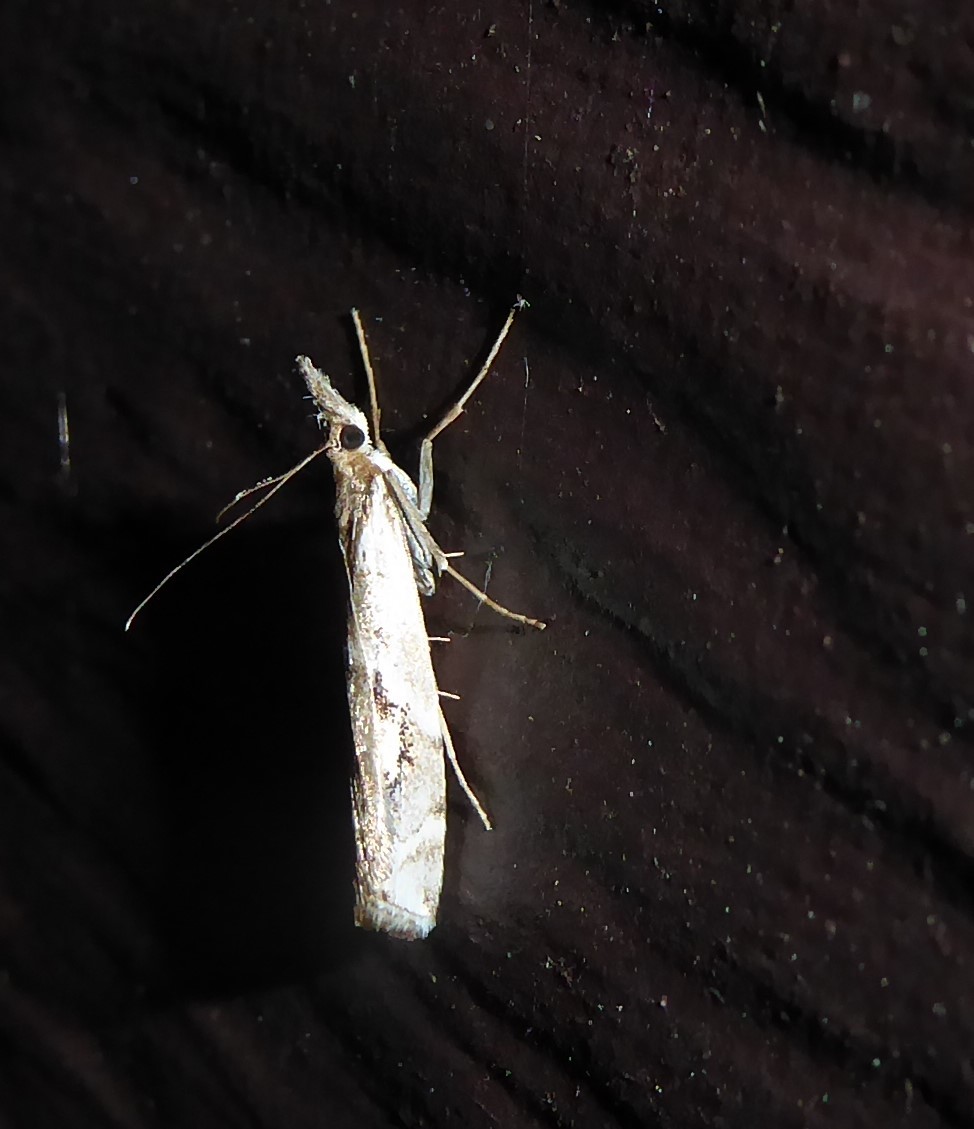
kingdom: Animalia
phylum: Arthropoda
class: Insecta
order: Lepidoptera
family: Crambidae
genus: Orocrambus
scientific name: Orocrambus vulgaris
